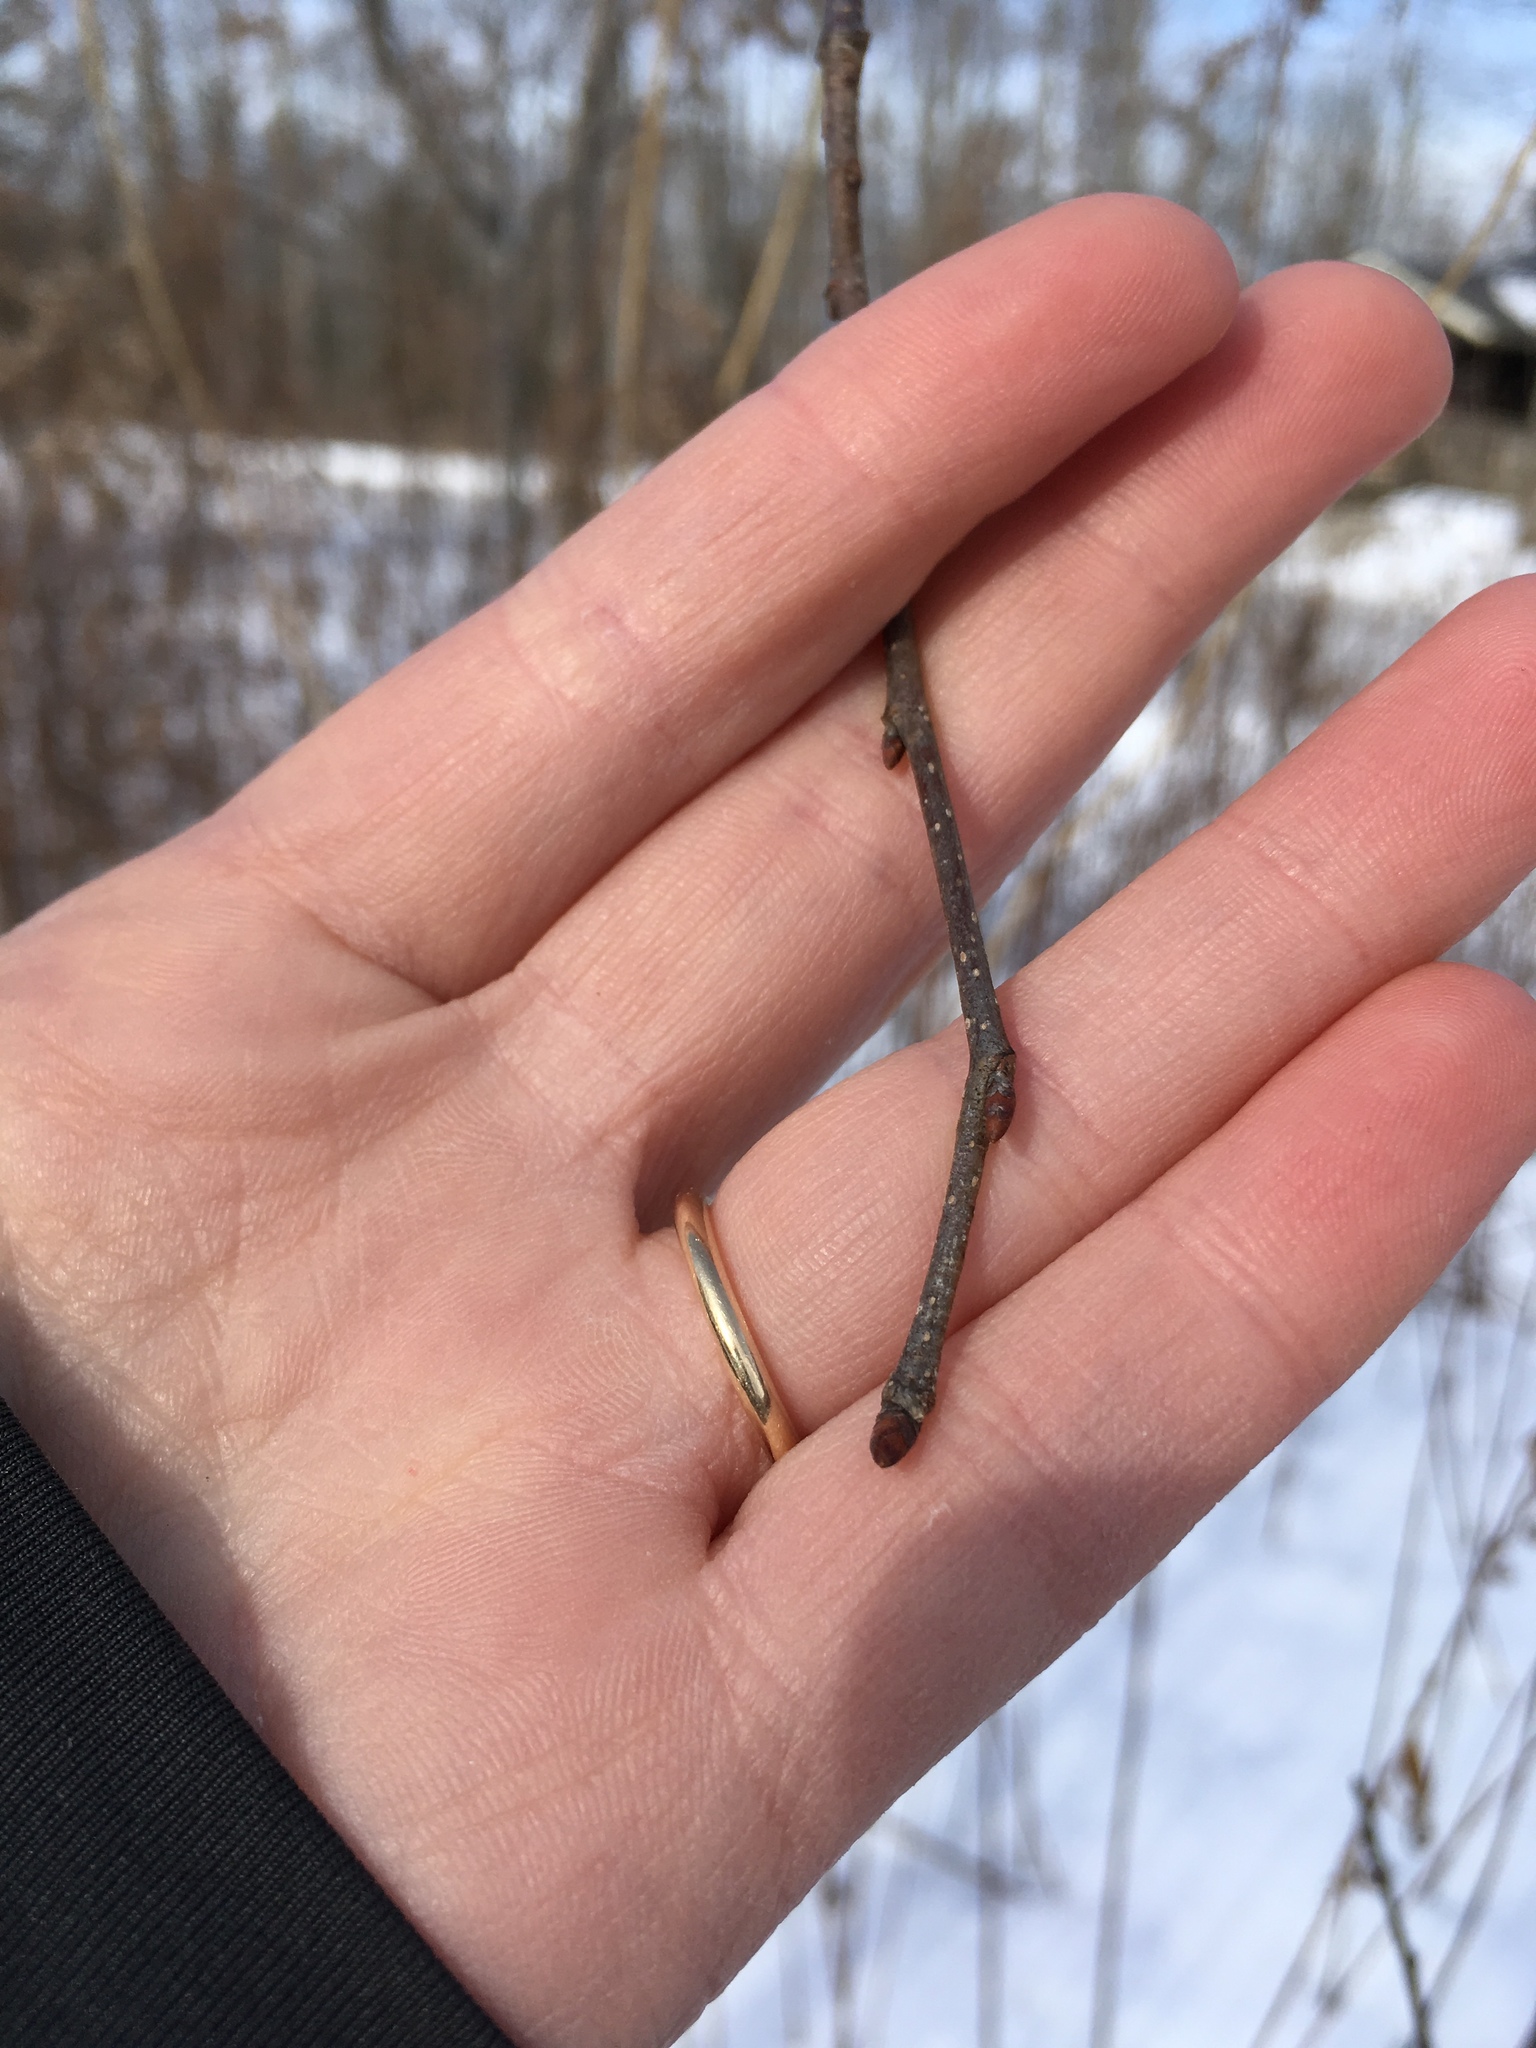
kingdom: Plantae
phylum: Tracheophyta
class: Magnoliopsida
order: Rosales
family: Ulmaceae
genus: Ulmus
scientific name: Ulmus americana
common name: American elm
